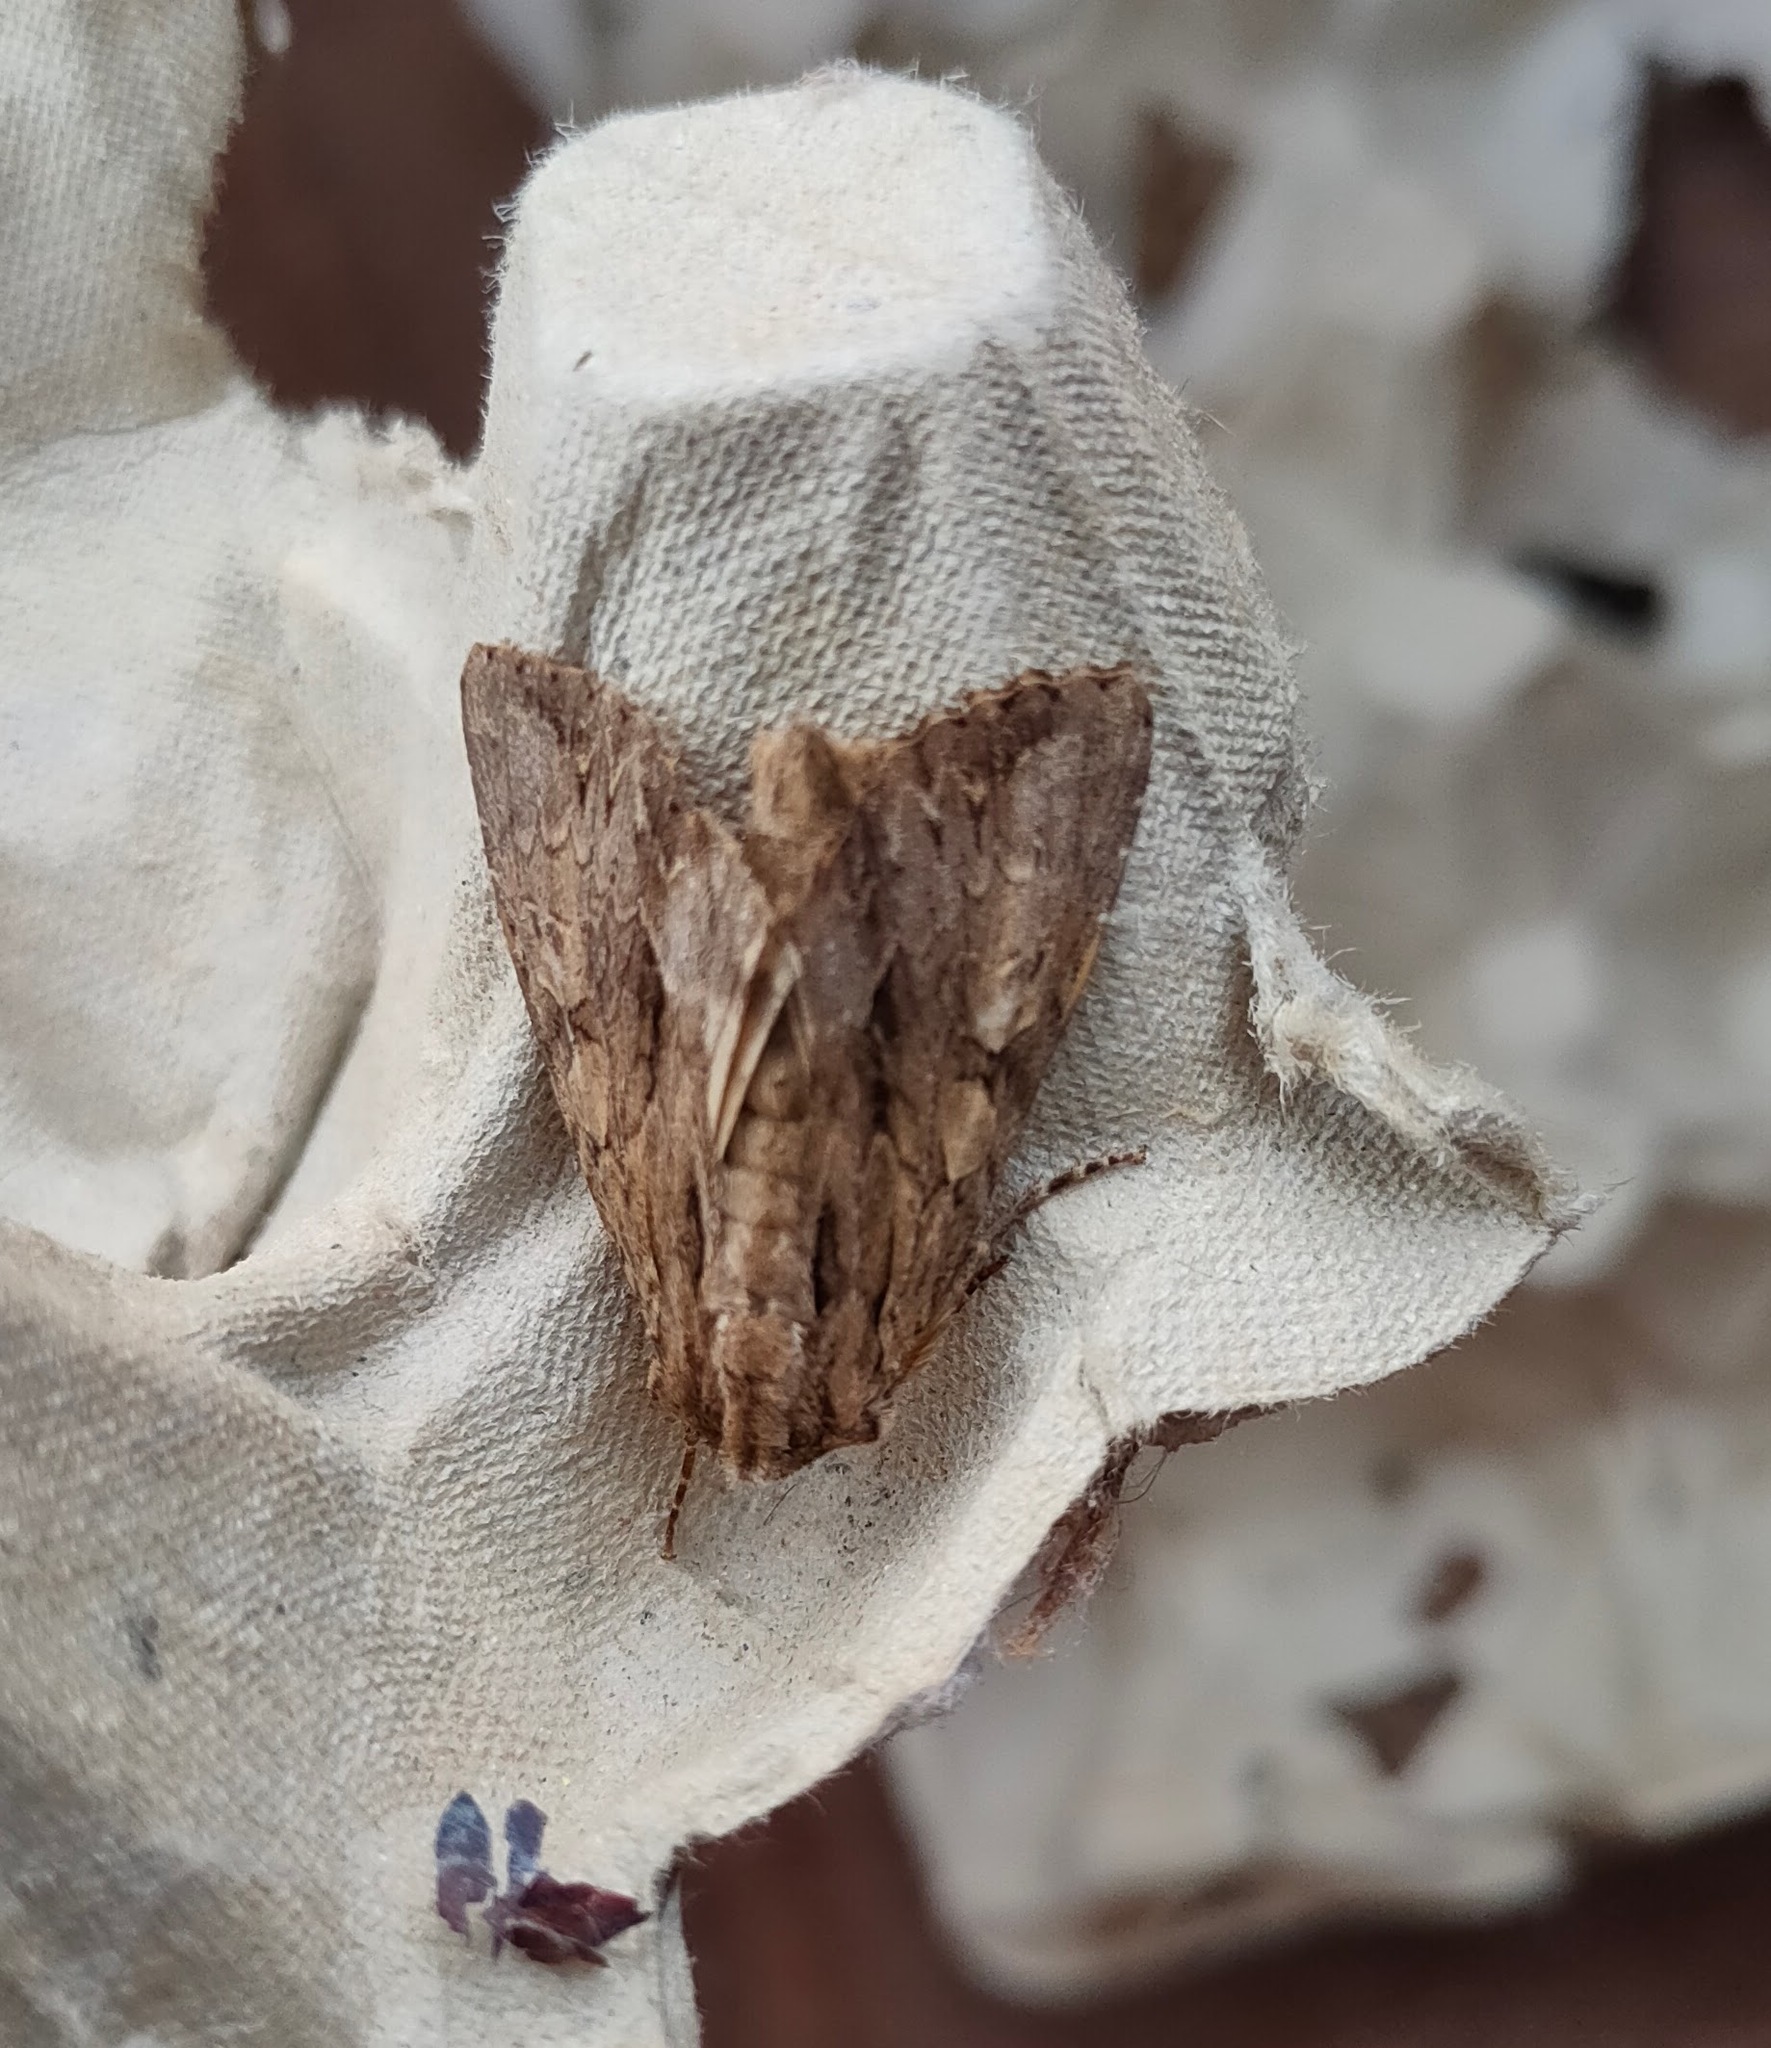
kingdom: Animalia
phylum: Arthropoda
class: Insecta
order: Lepidoptera
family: Noctuidae
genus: Apamea
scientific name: Apamea monoglypha
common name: Dark arches
